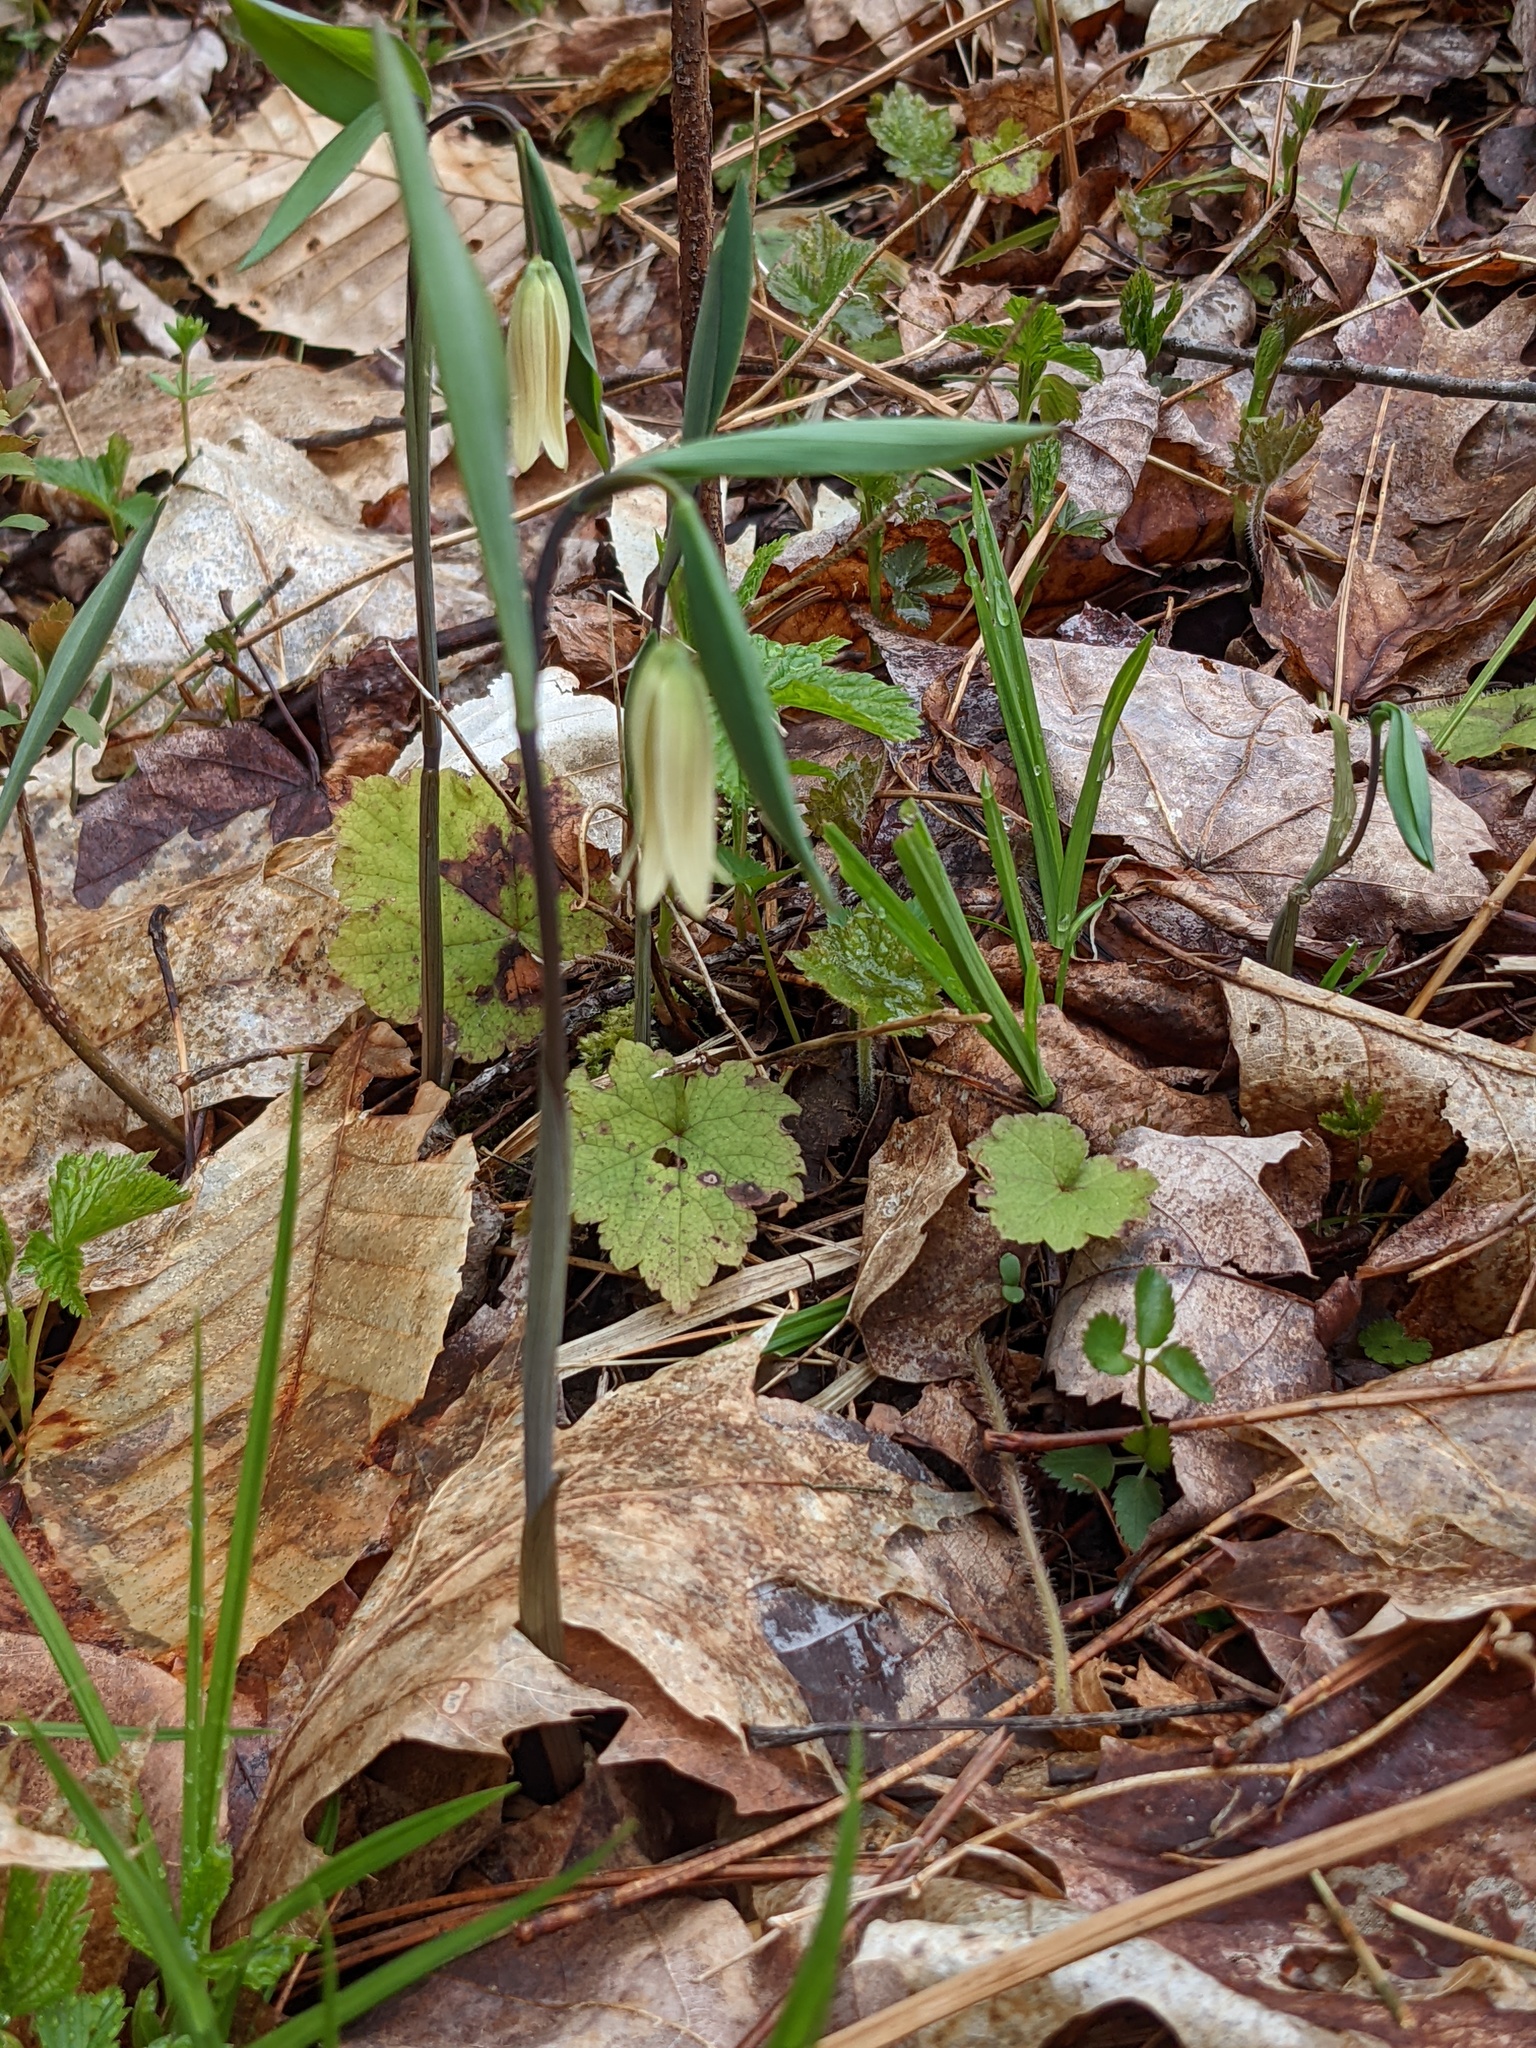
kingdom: Plantae
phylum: Tracheophyta
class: Liliopsida
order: Liliales
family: Colchicaceae
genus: Uvularia
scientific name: Uvularia sessilifolia
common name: Straw-lily
